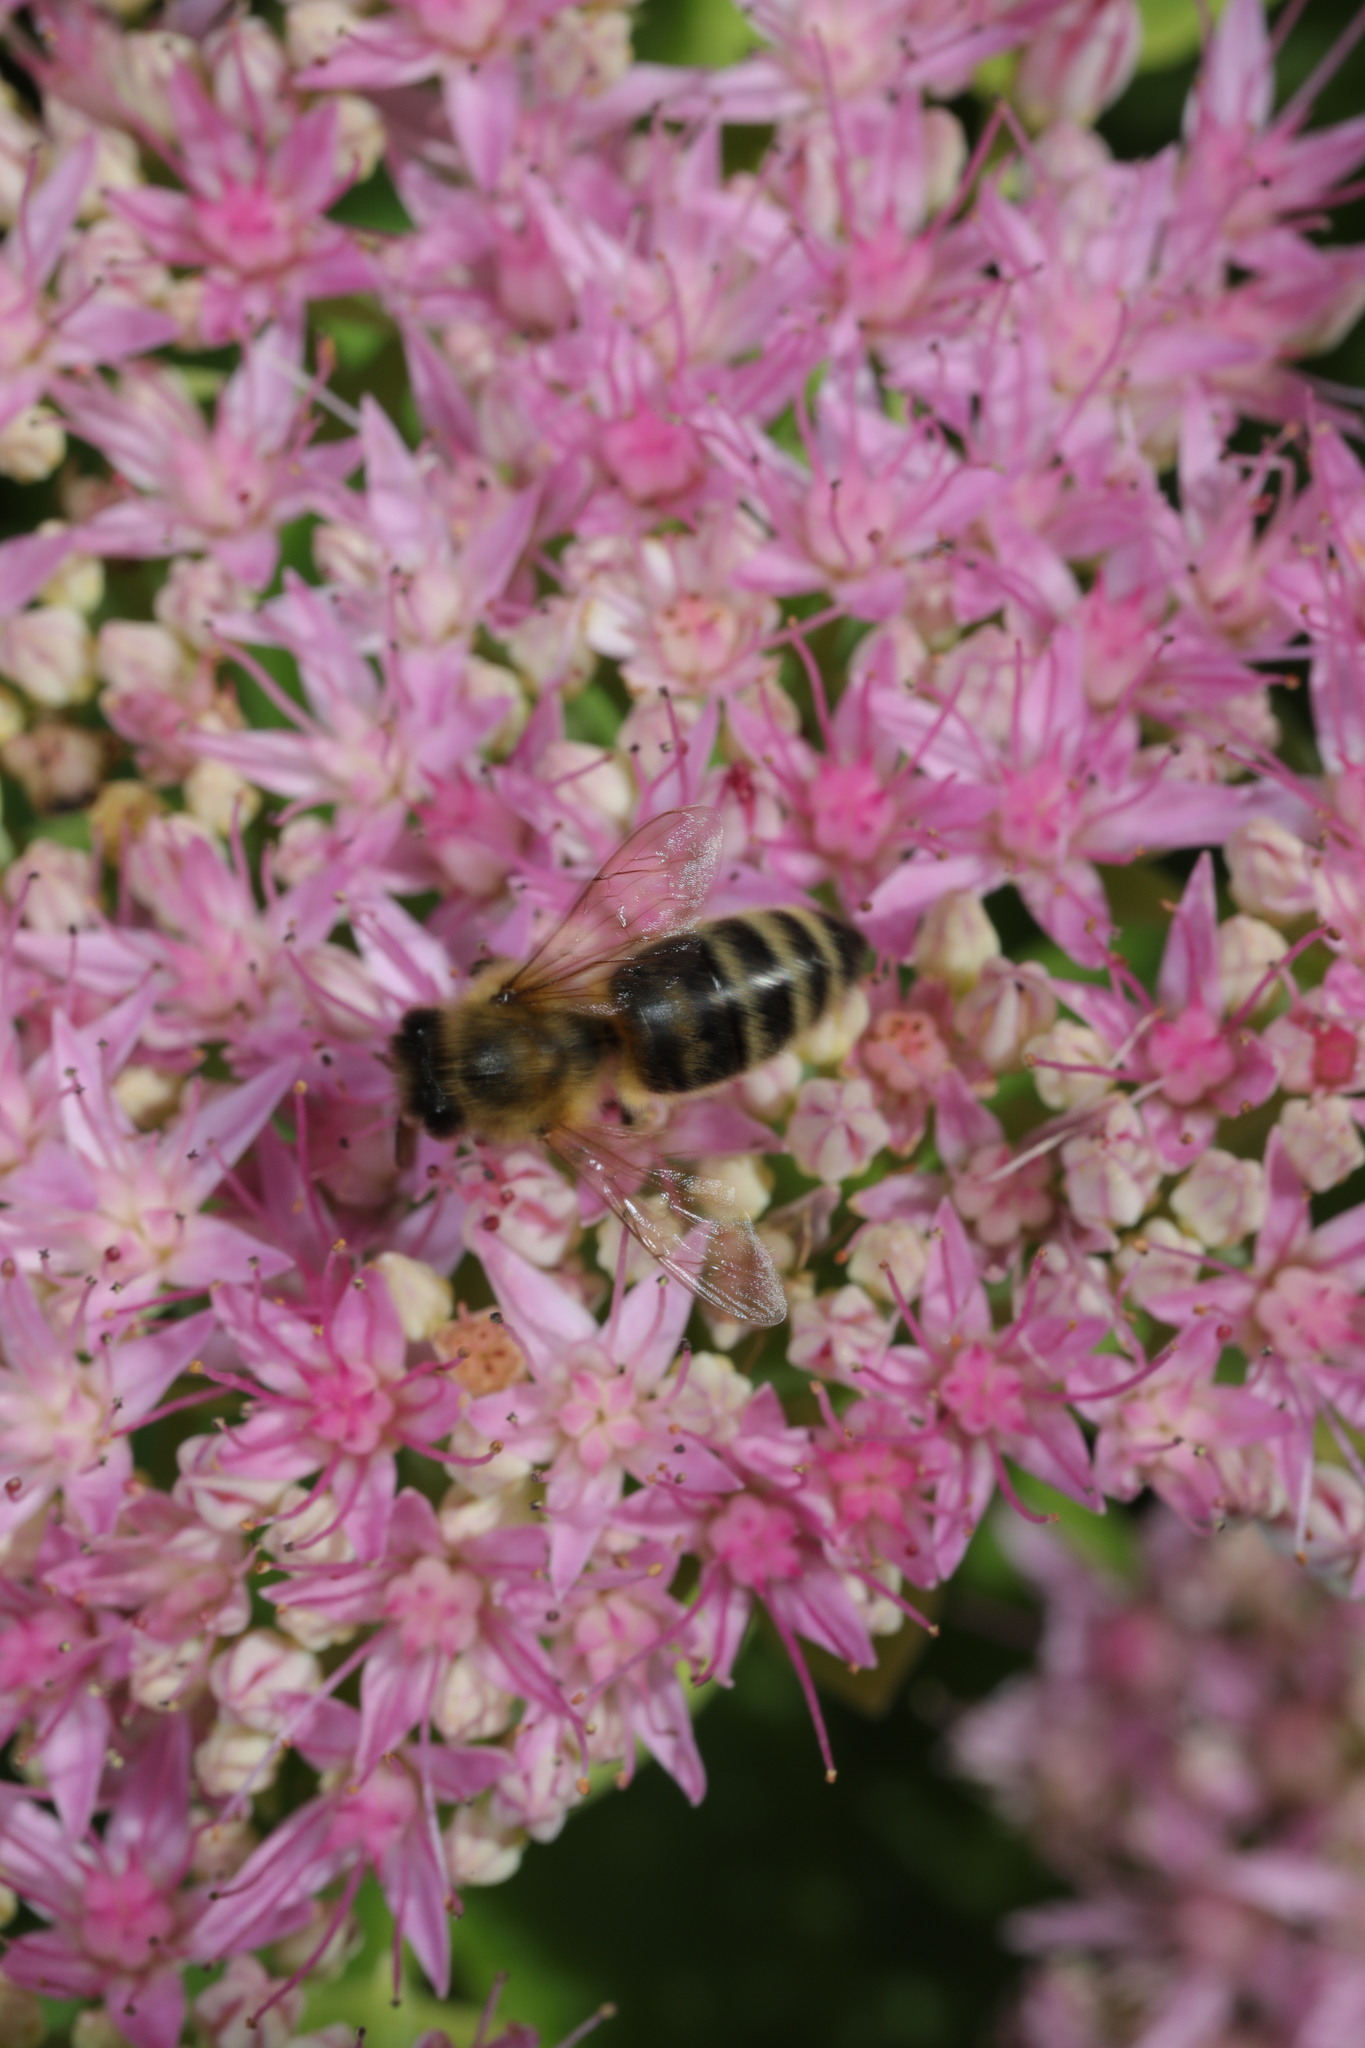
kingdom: Animalia
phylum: Arthropoda
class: Insecta
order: Hymenoptera
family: Apidae
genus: Apis
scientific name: Apis mellifera
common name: Honey bee
